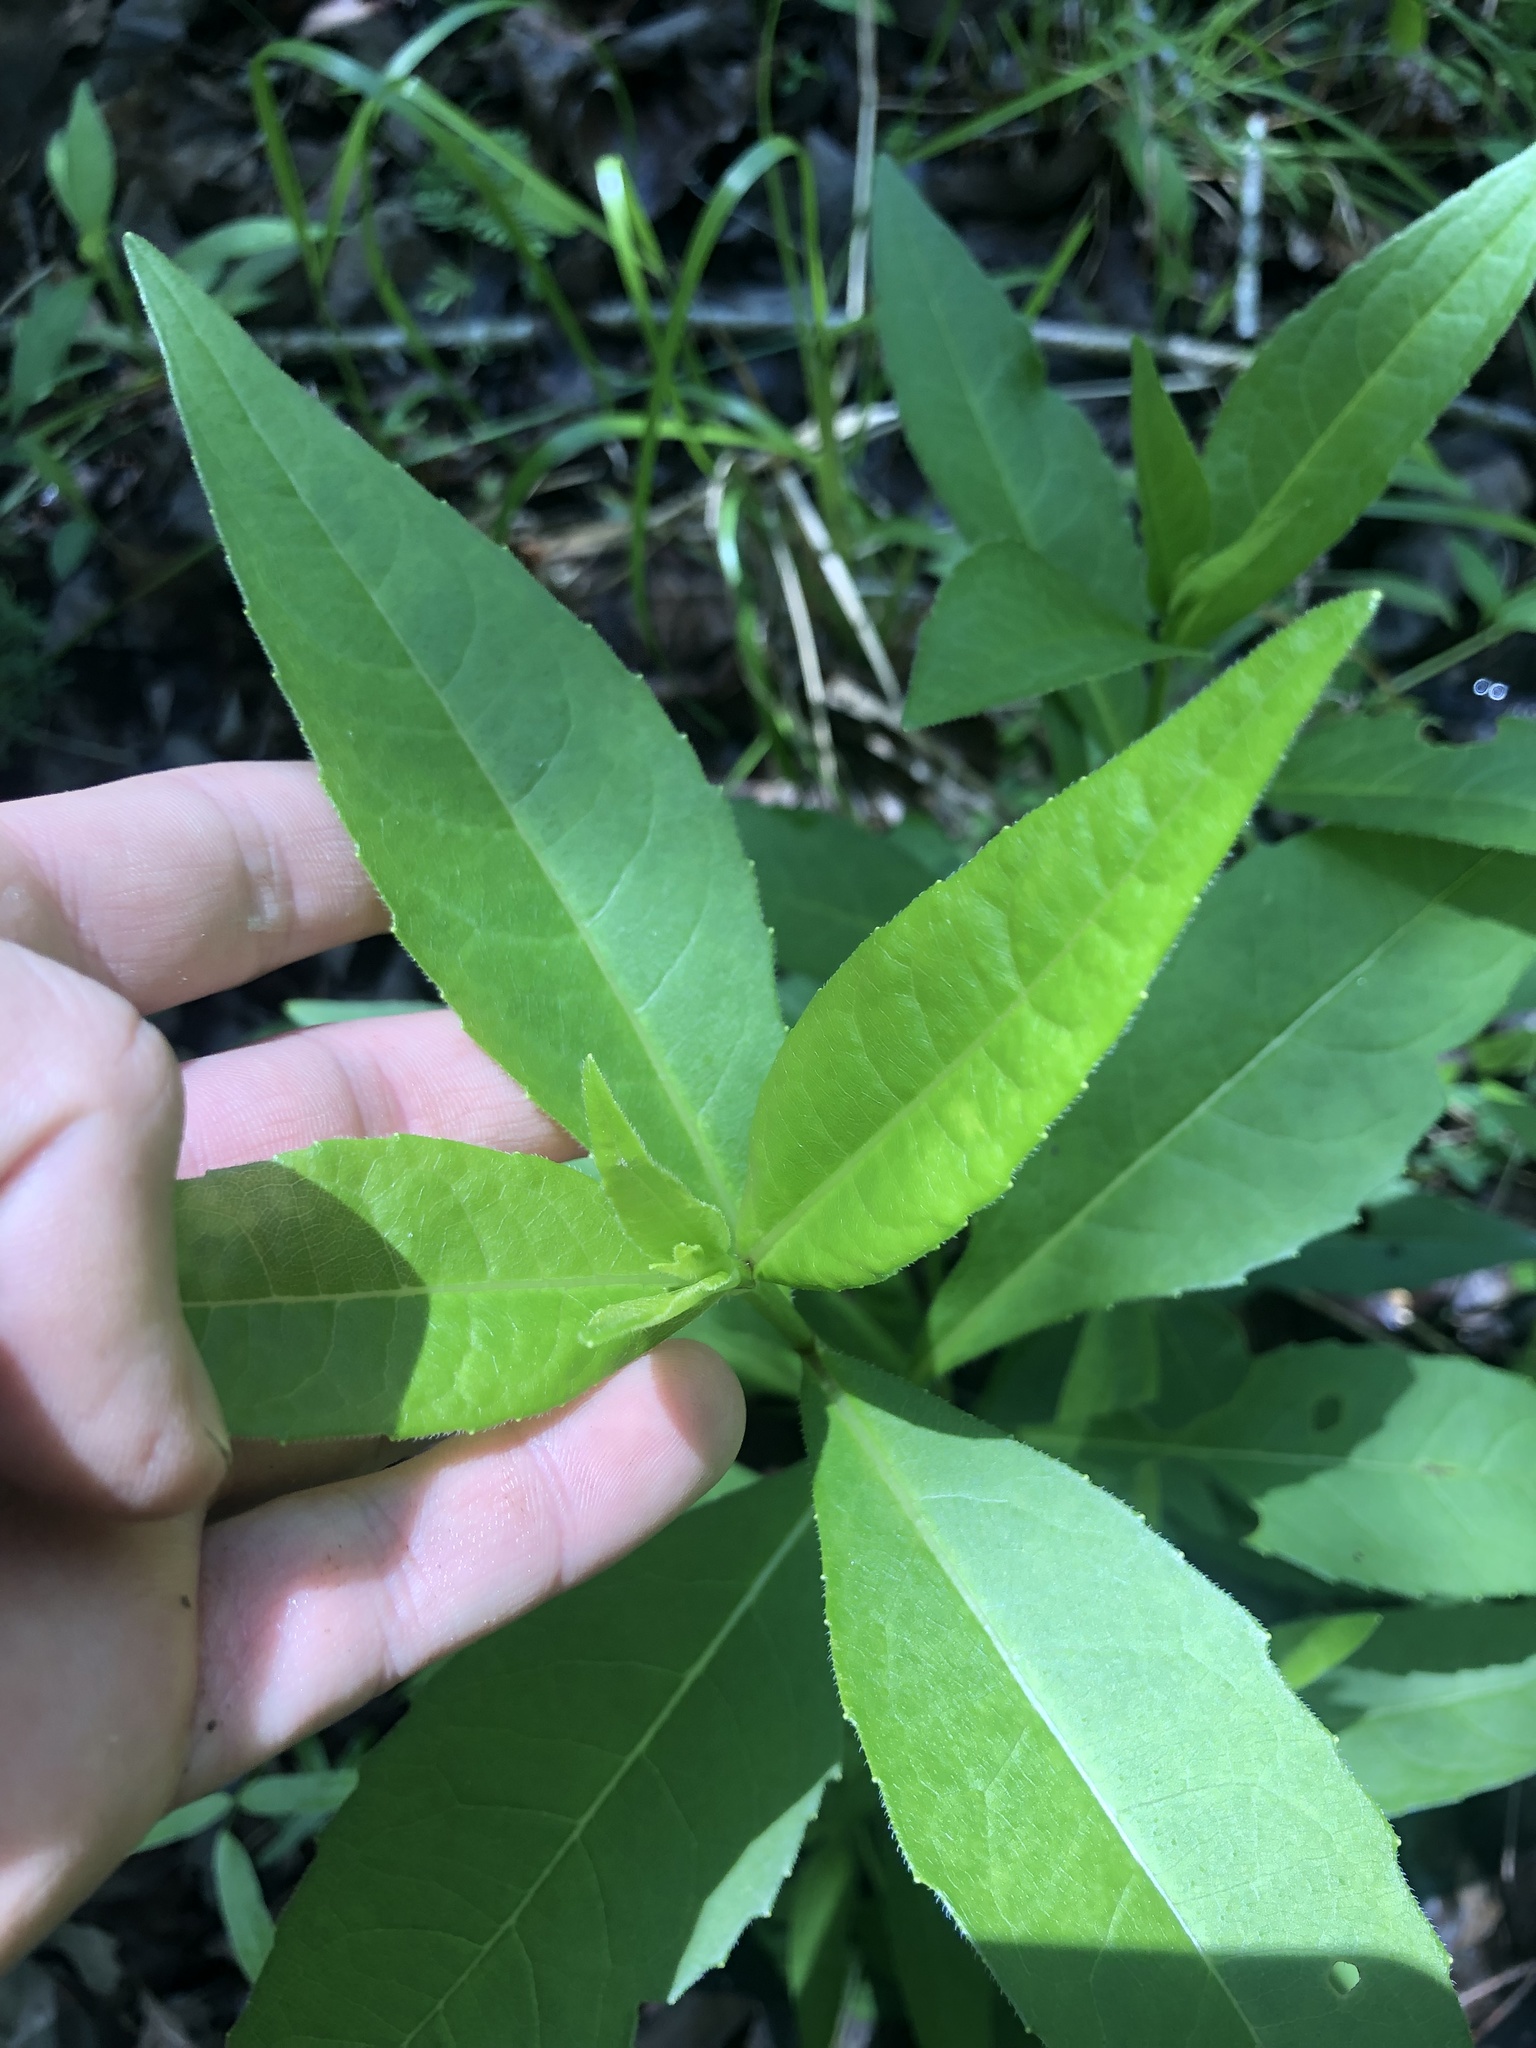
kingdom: Plantae
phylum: Tracheophyta
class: Magnoliopsida
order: Asterales
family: Asteraceae
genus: Silphium
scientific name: Silphium asteriscus
